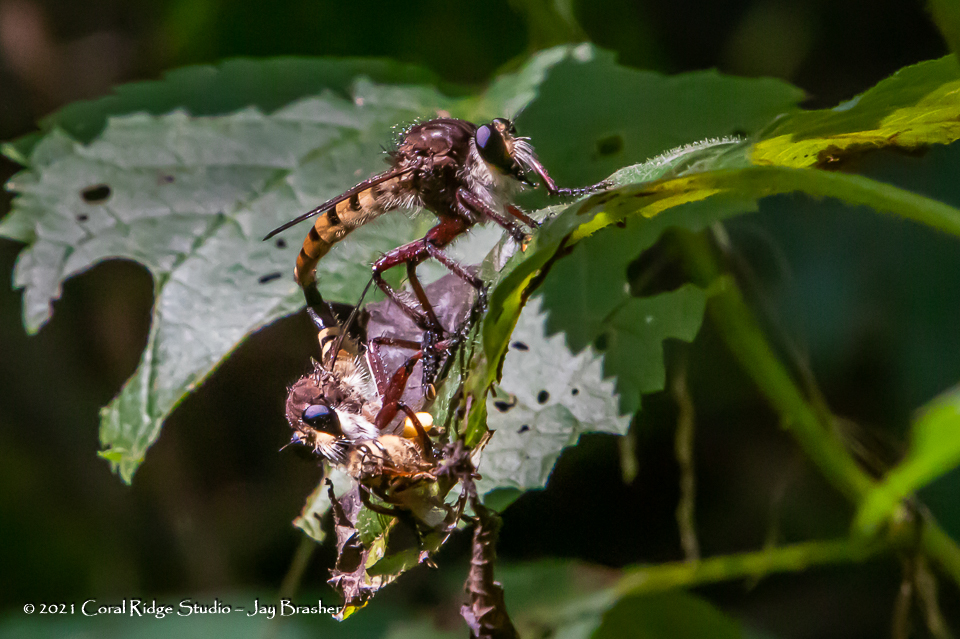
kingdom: Animalia
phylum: Arthropoda
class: Insecta
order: Diptera
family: Asilidae
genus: Promachus
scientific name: Promachus hinei
